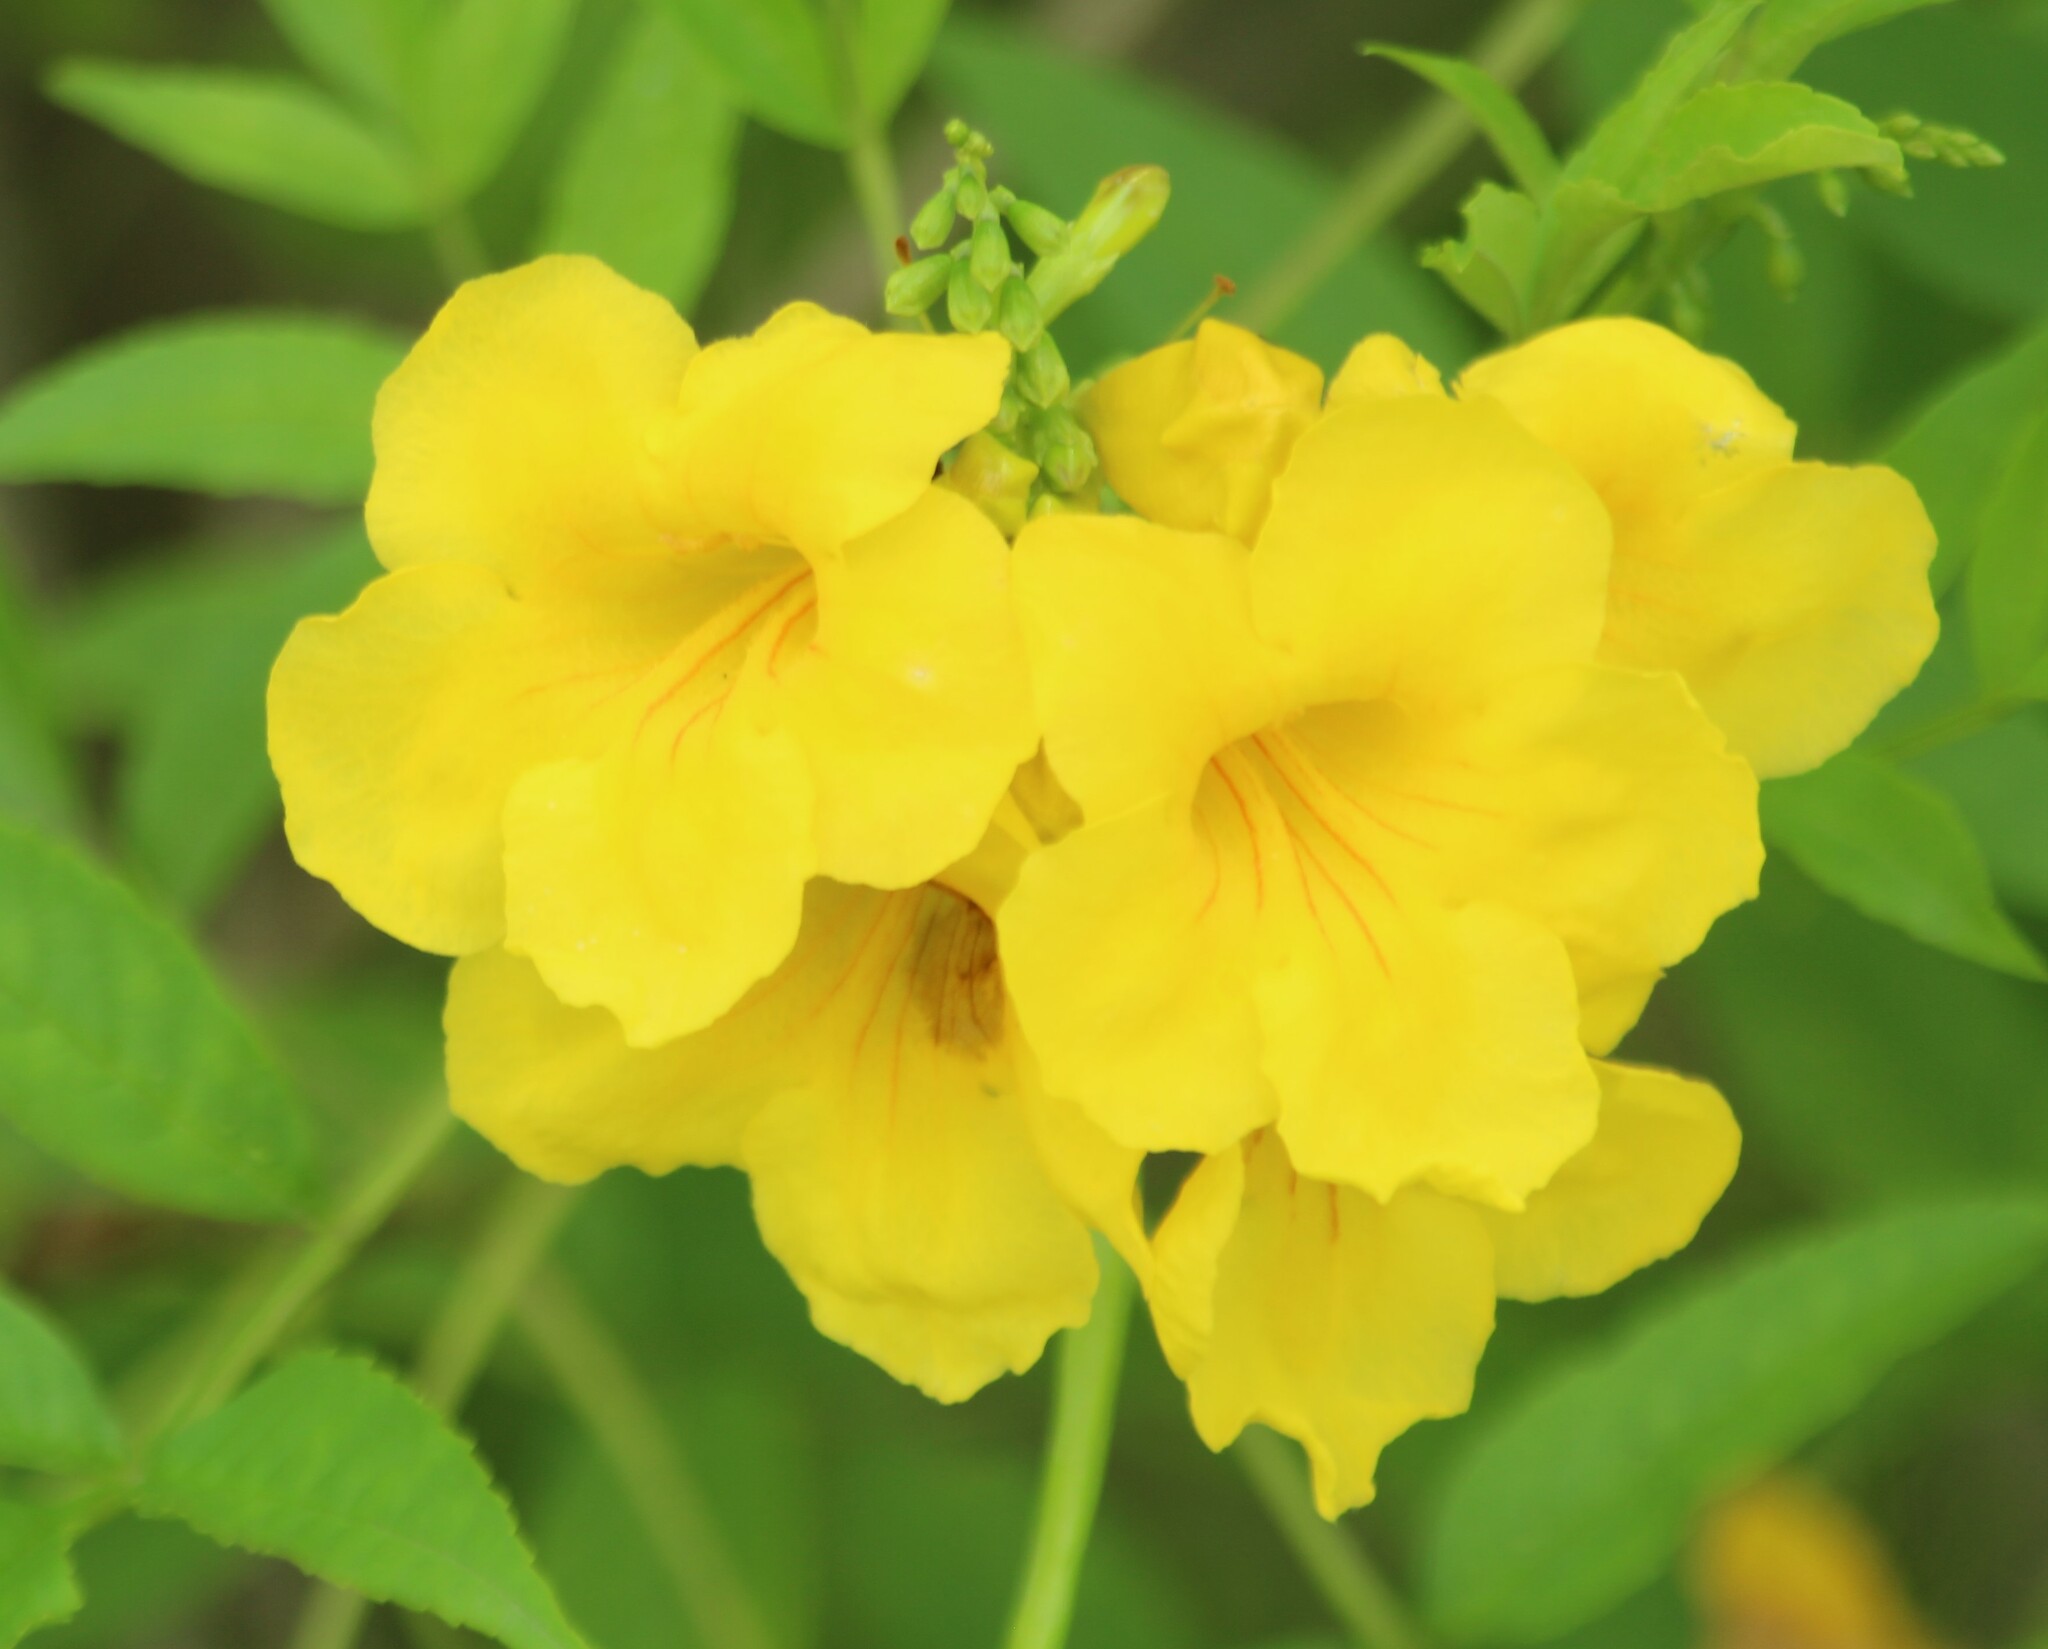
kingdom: Plantae
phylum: Tracheophyta
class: Magnoliopsida
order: Lamiales
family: Bignoniaceae
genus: Tecoma
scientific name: Tecoma stans
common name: Yellow trumpetbush
